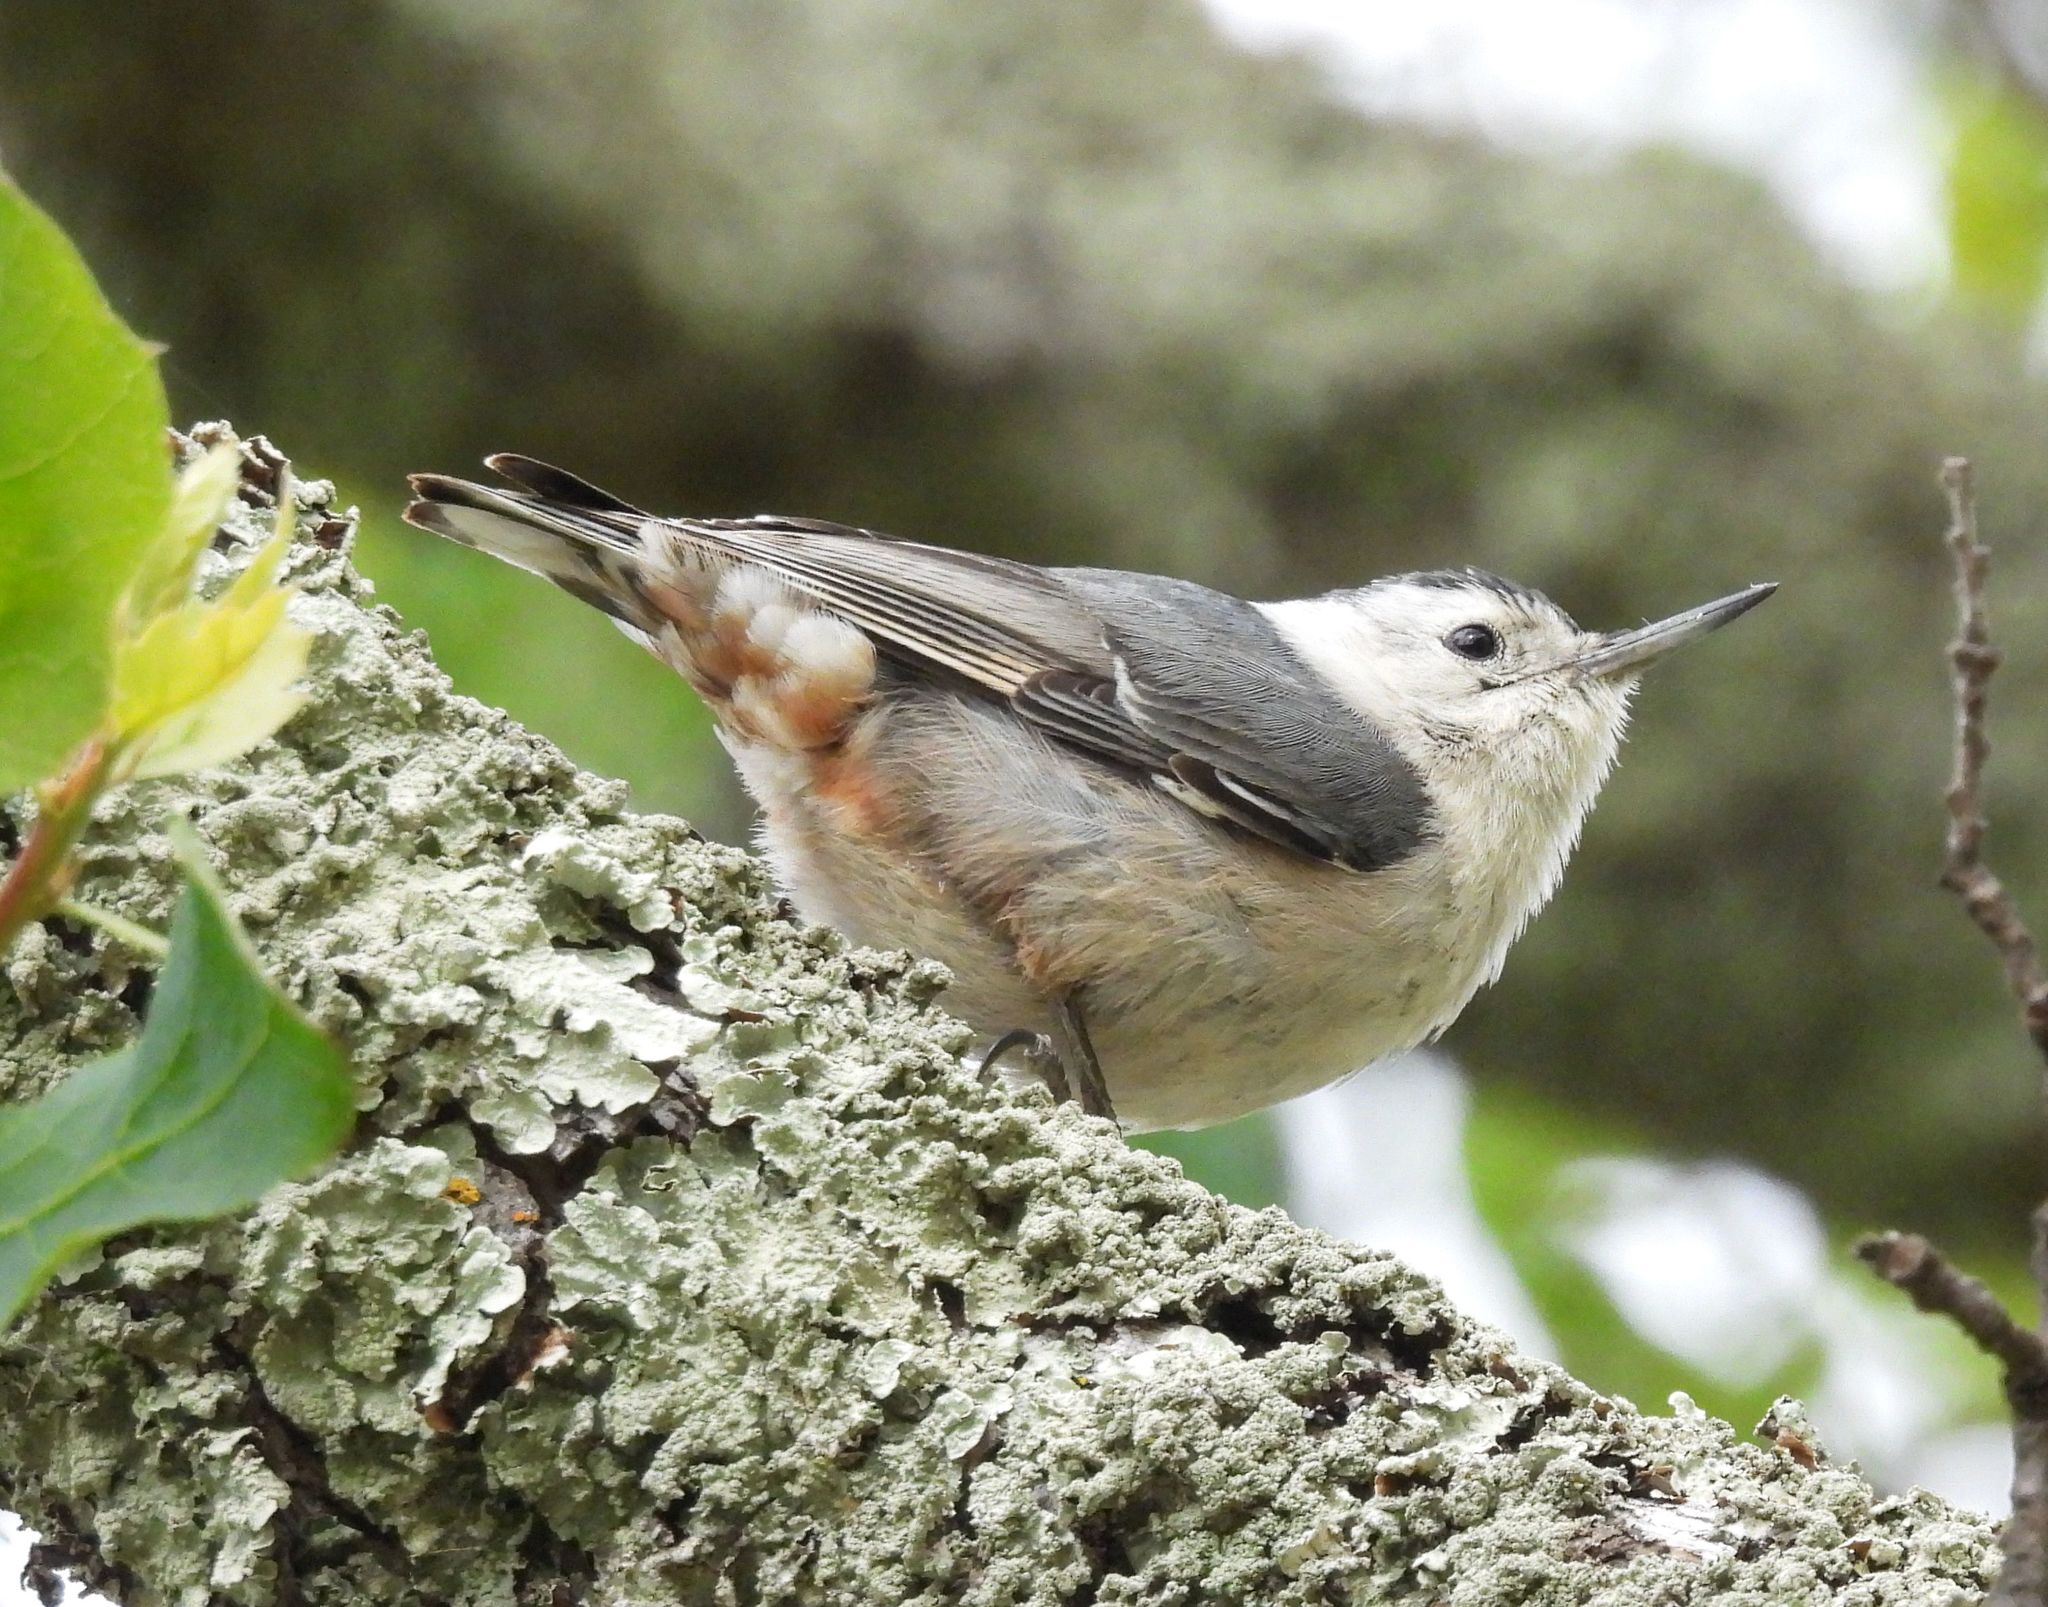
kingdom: Animalia
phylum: Chordata
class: Aves
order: Passeriformes
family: Sittidae
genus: Sitta
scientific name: Sitta carolinensis
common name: White-breasted nuthatch
